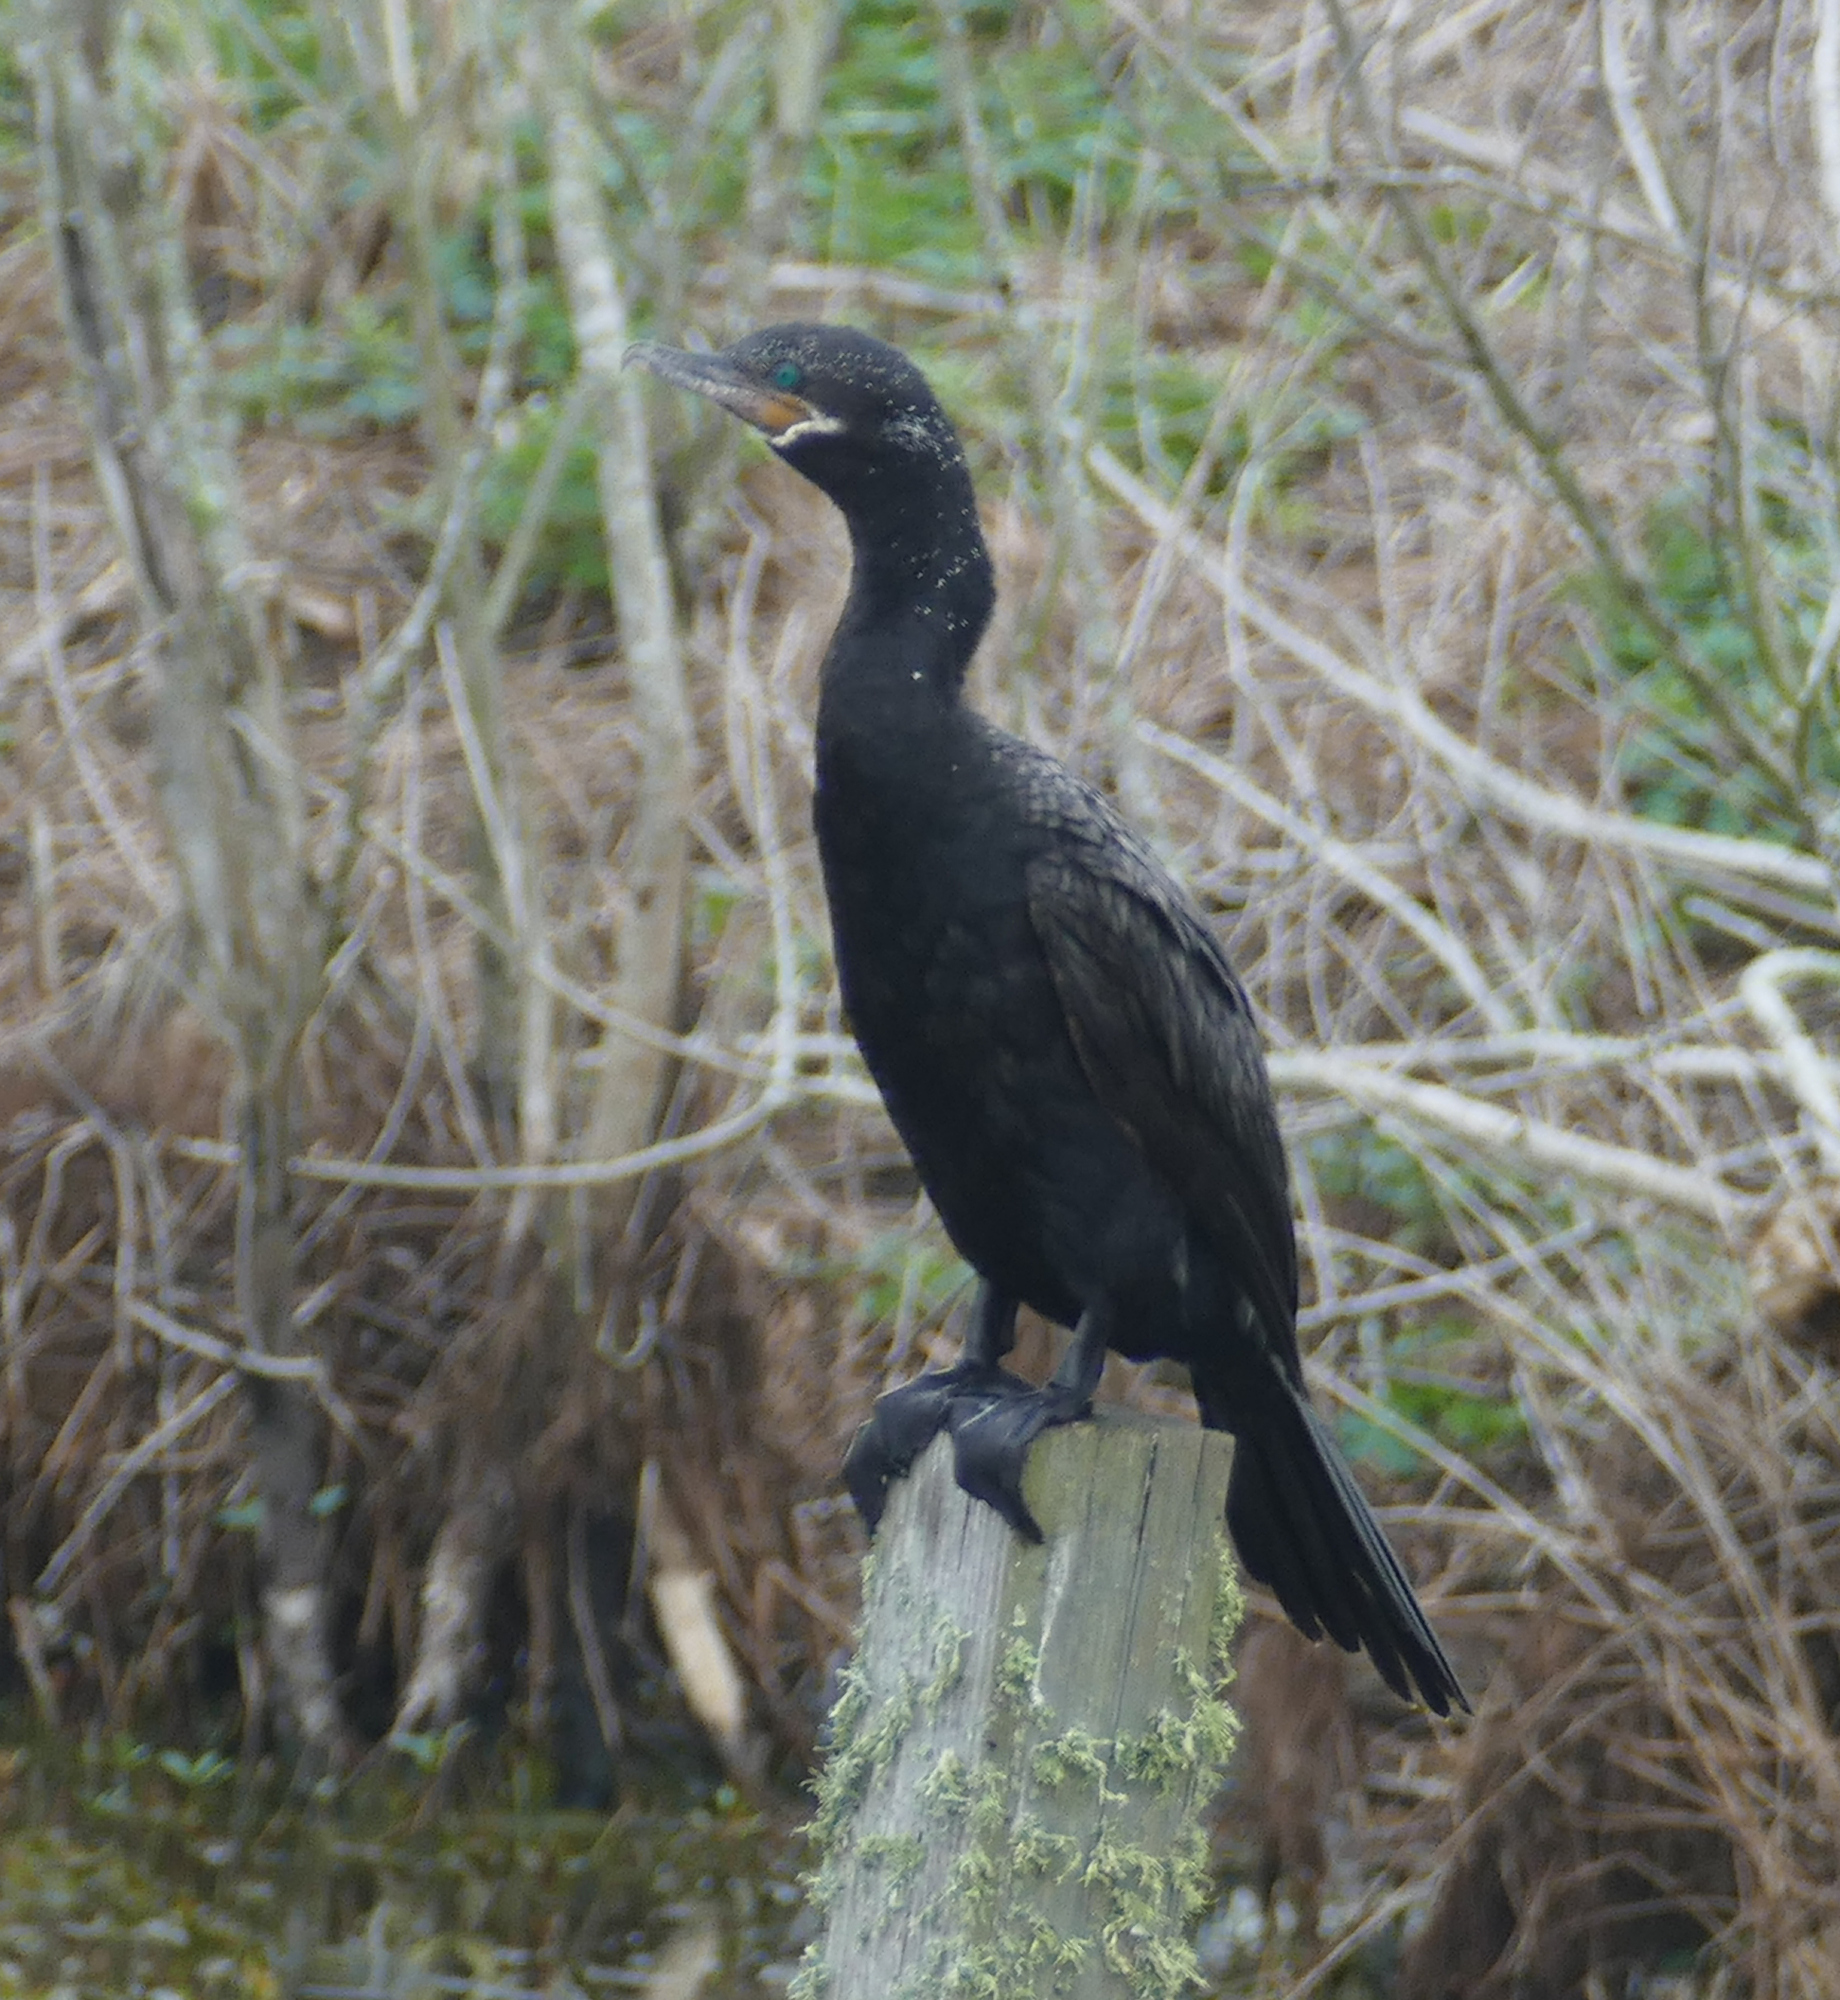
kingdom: Animalia
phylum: Chordata
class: Aves
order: Suliformes
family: Phalacrocoracidae
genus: Phalacrocorax
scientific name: Phalacrocorax brasilianus
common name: Neotropic cormorant
